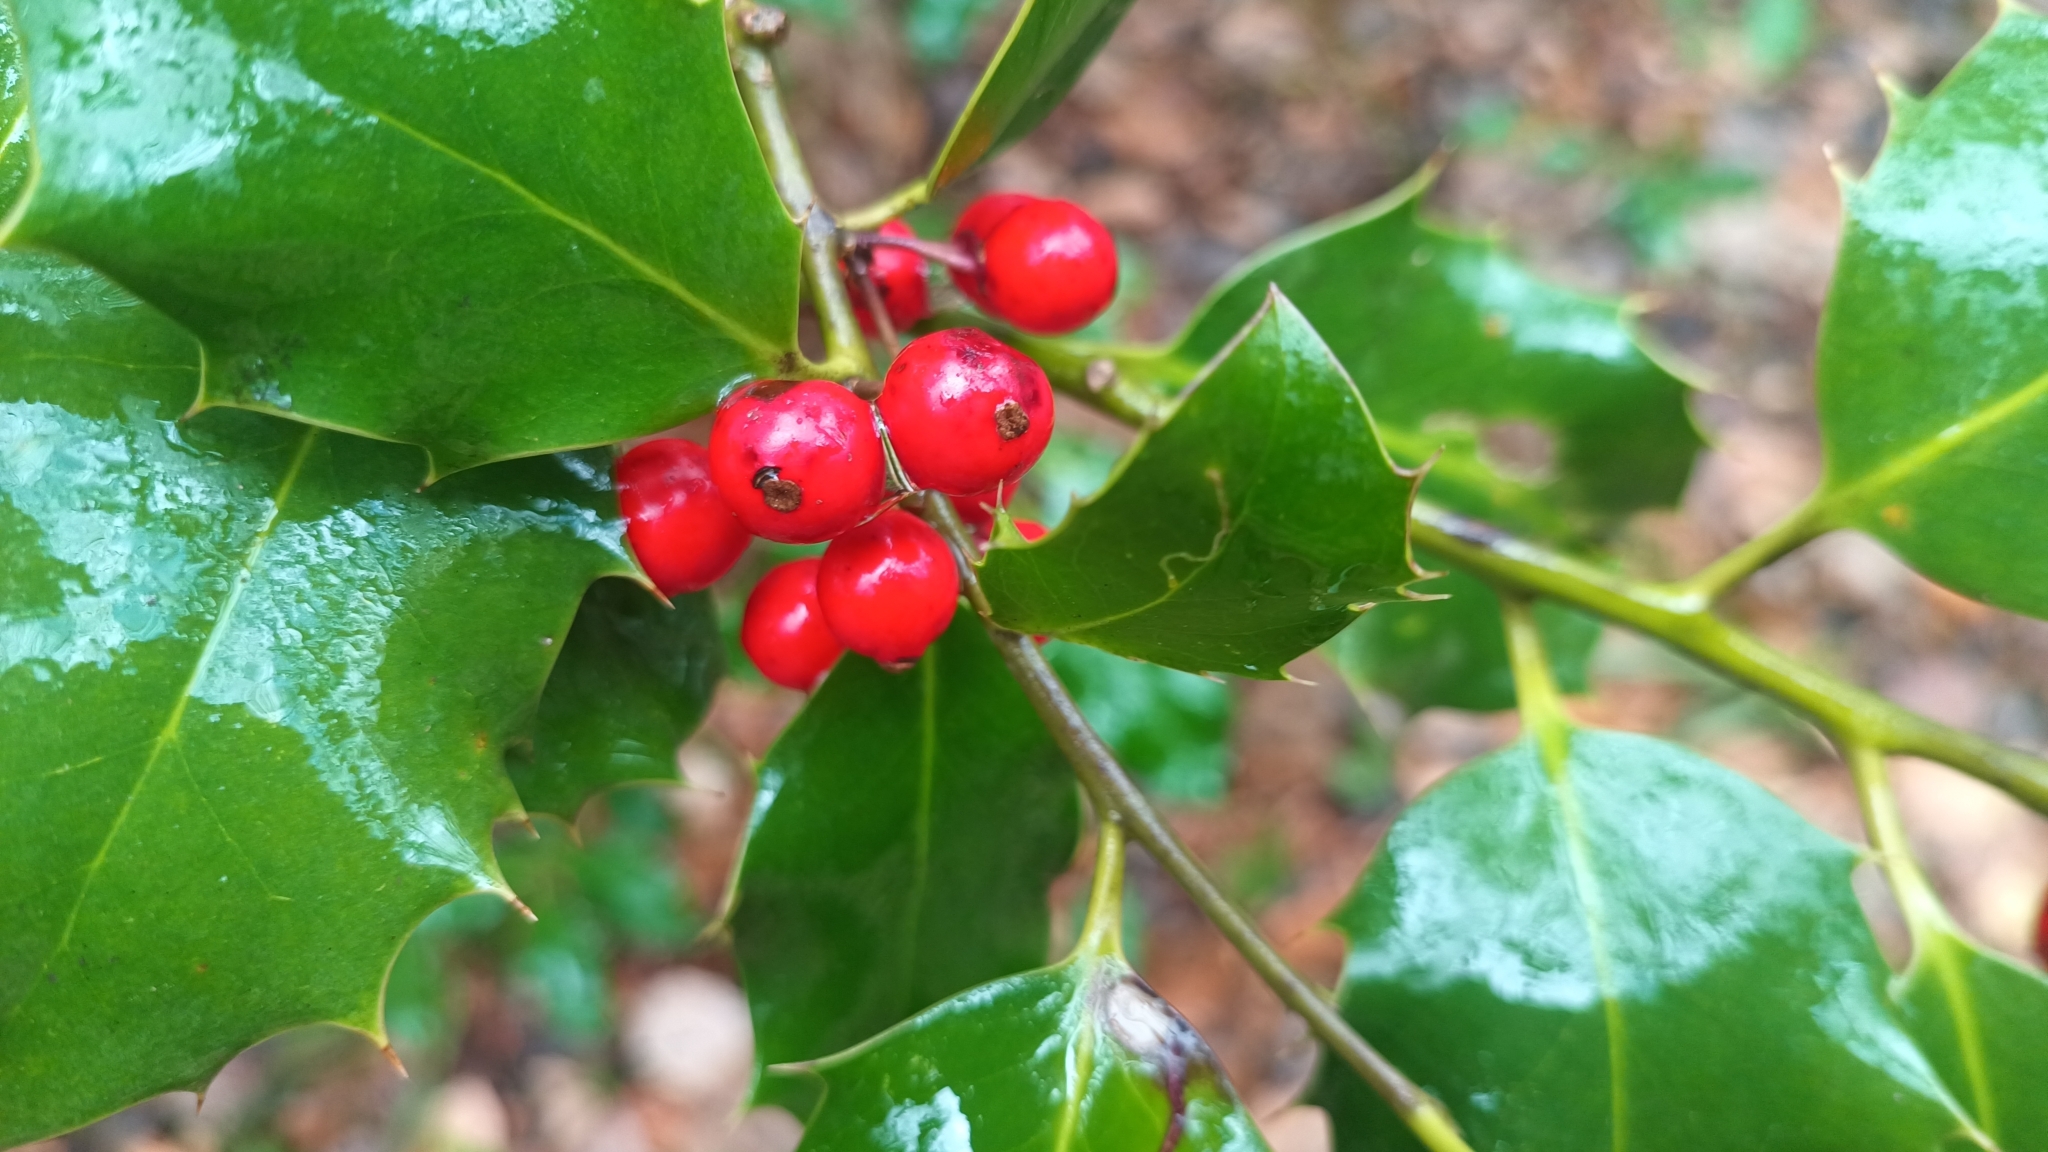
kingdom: Plantae
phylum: Tracheophyta
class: Magnoliopsida
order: Aquifoliales
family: Aquifoliaceae
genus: Ilex
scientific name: Ilex aquifolium
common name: English holly
